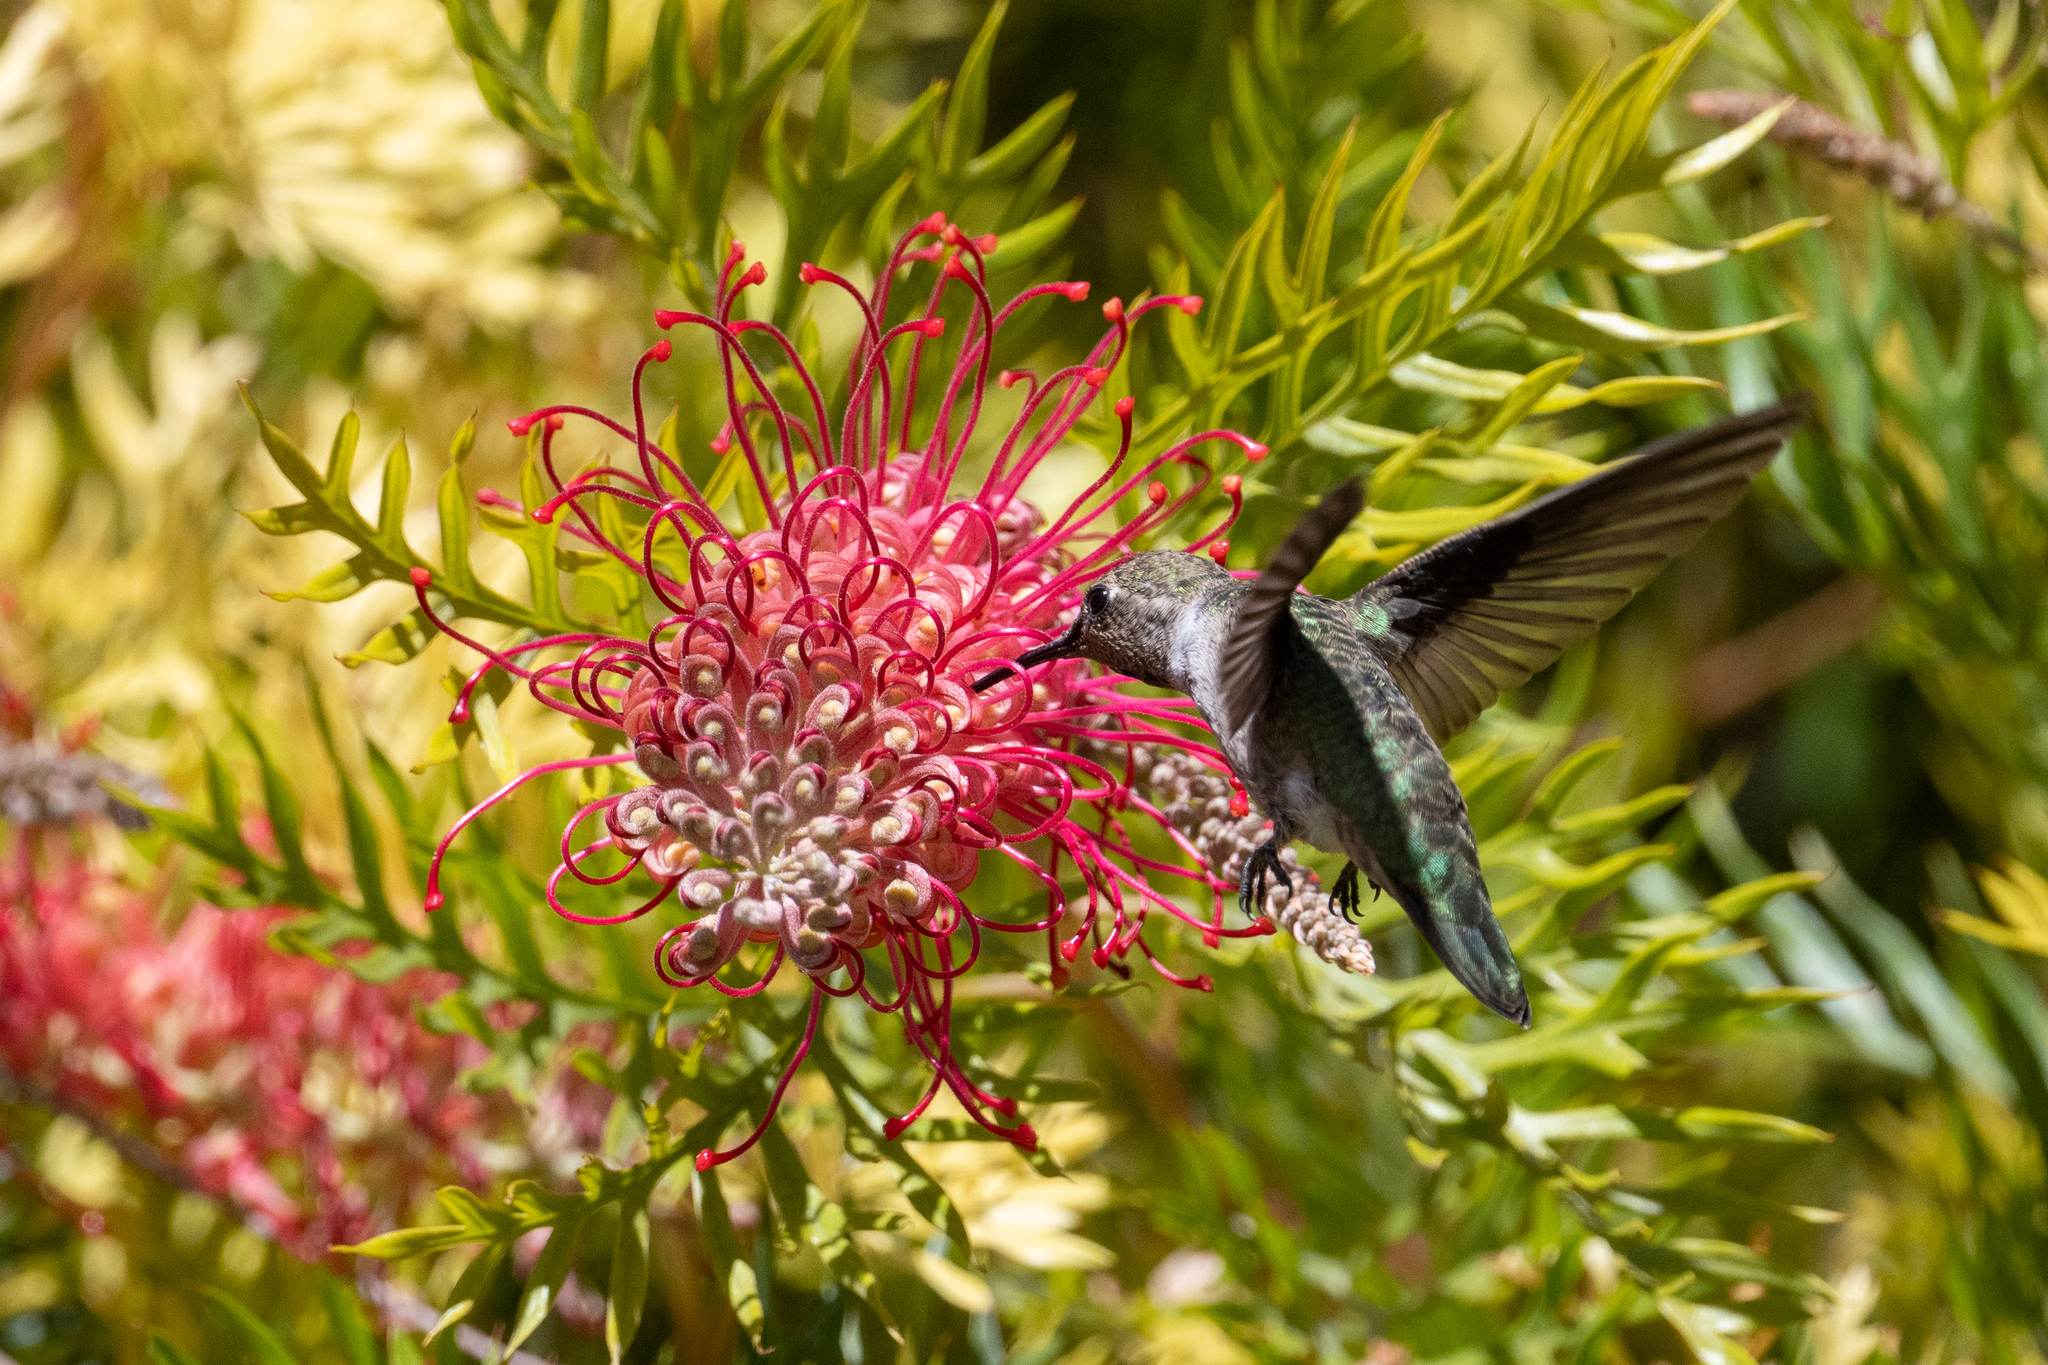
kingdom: Animalia
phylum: Chordata
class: Aves
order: Apodiformes
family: Trochilidae
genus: Calypte
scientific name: Calypte anna
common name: Anna's hummingbird
